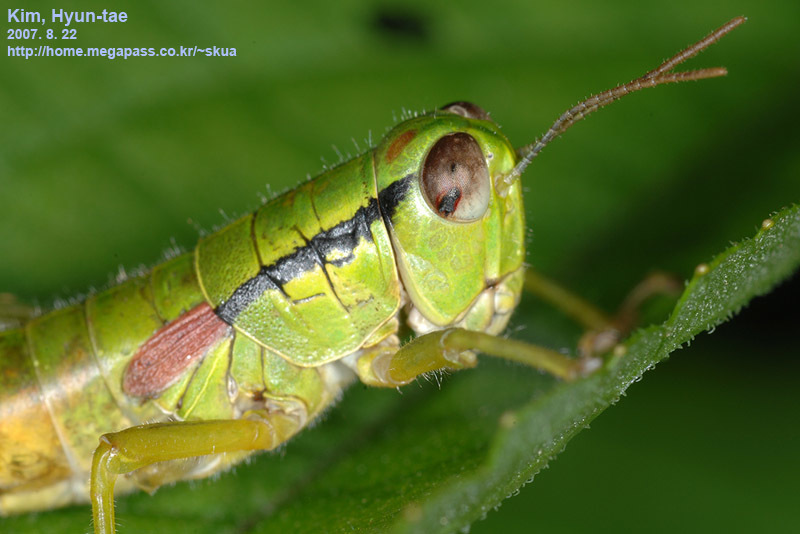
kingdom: Animalia
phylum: Arthropoda
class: Insecta
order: Orthoptera
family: Acrididae
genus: Anapodisma
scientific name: Anapodisma miramae
